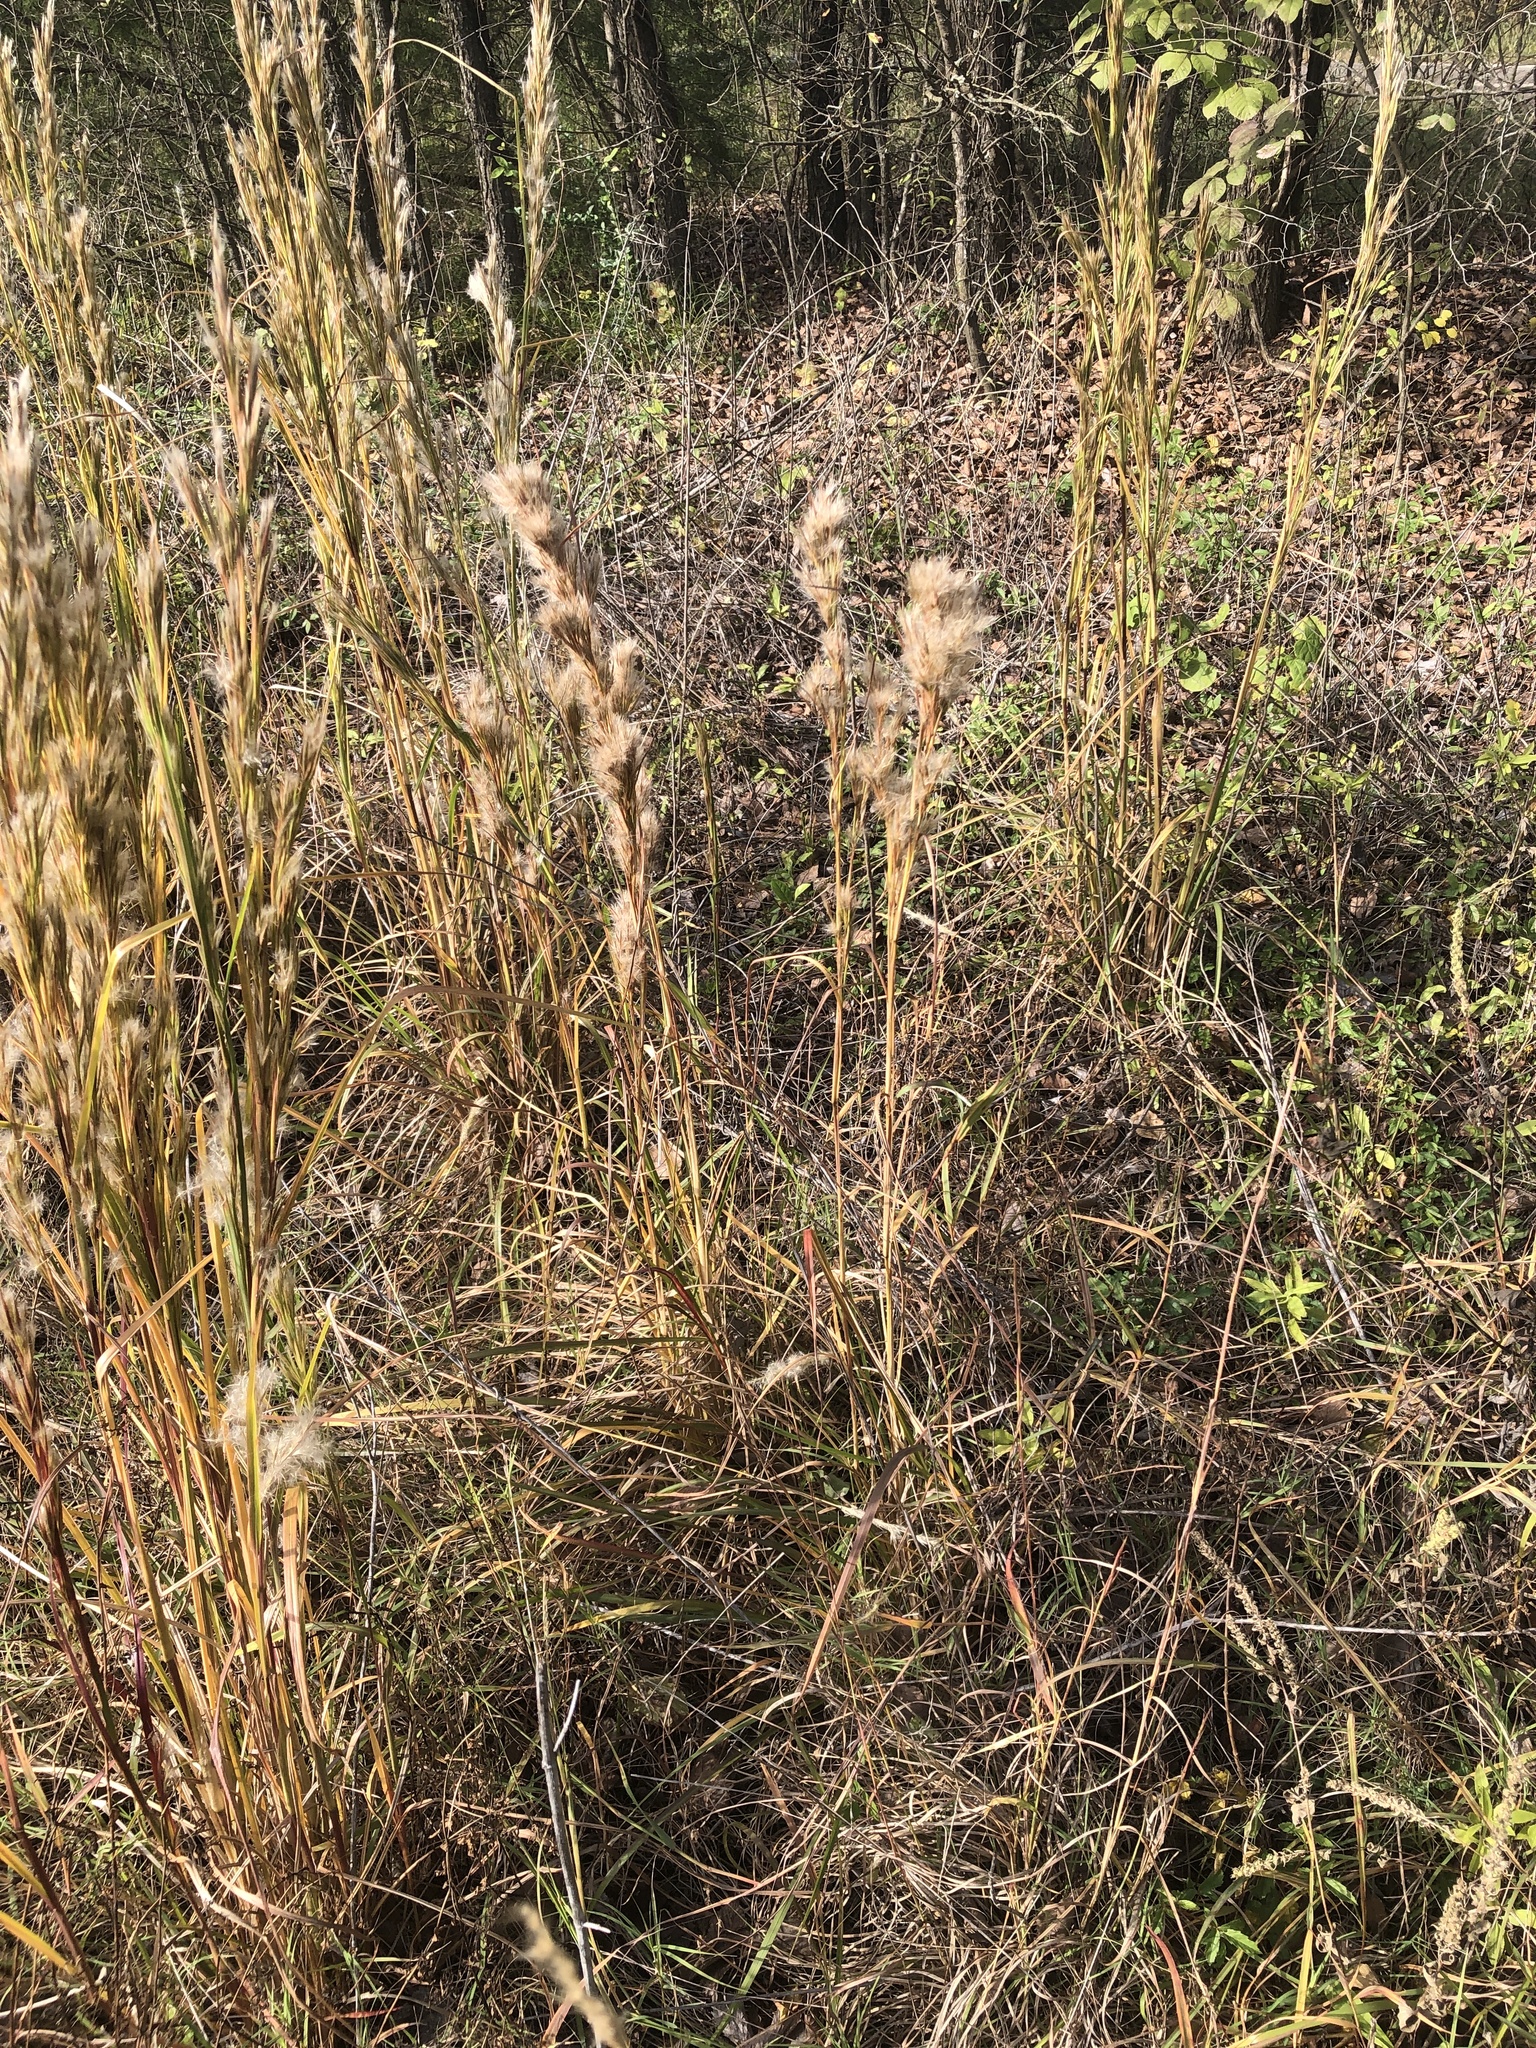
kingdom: Plantae
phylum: Tracheophyta
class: Liliopsida
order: Poales
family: Poaceae
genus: Andropogon
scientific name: Andropogon tenuispatheus
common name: Bushy bluestem
